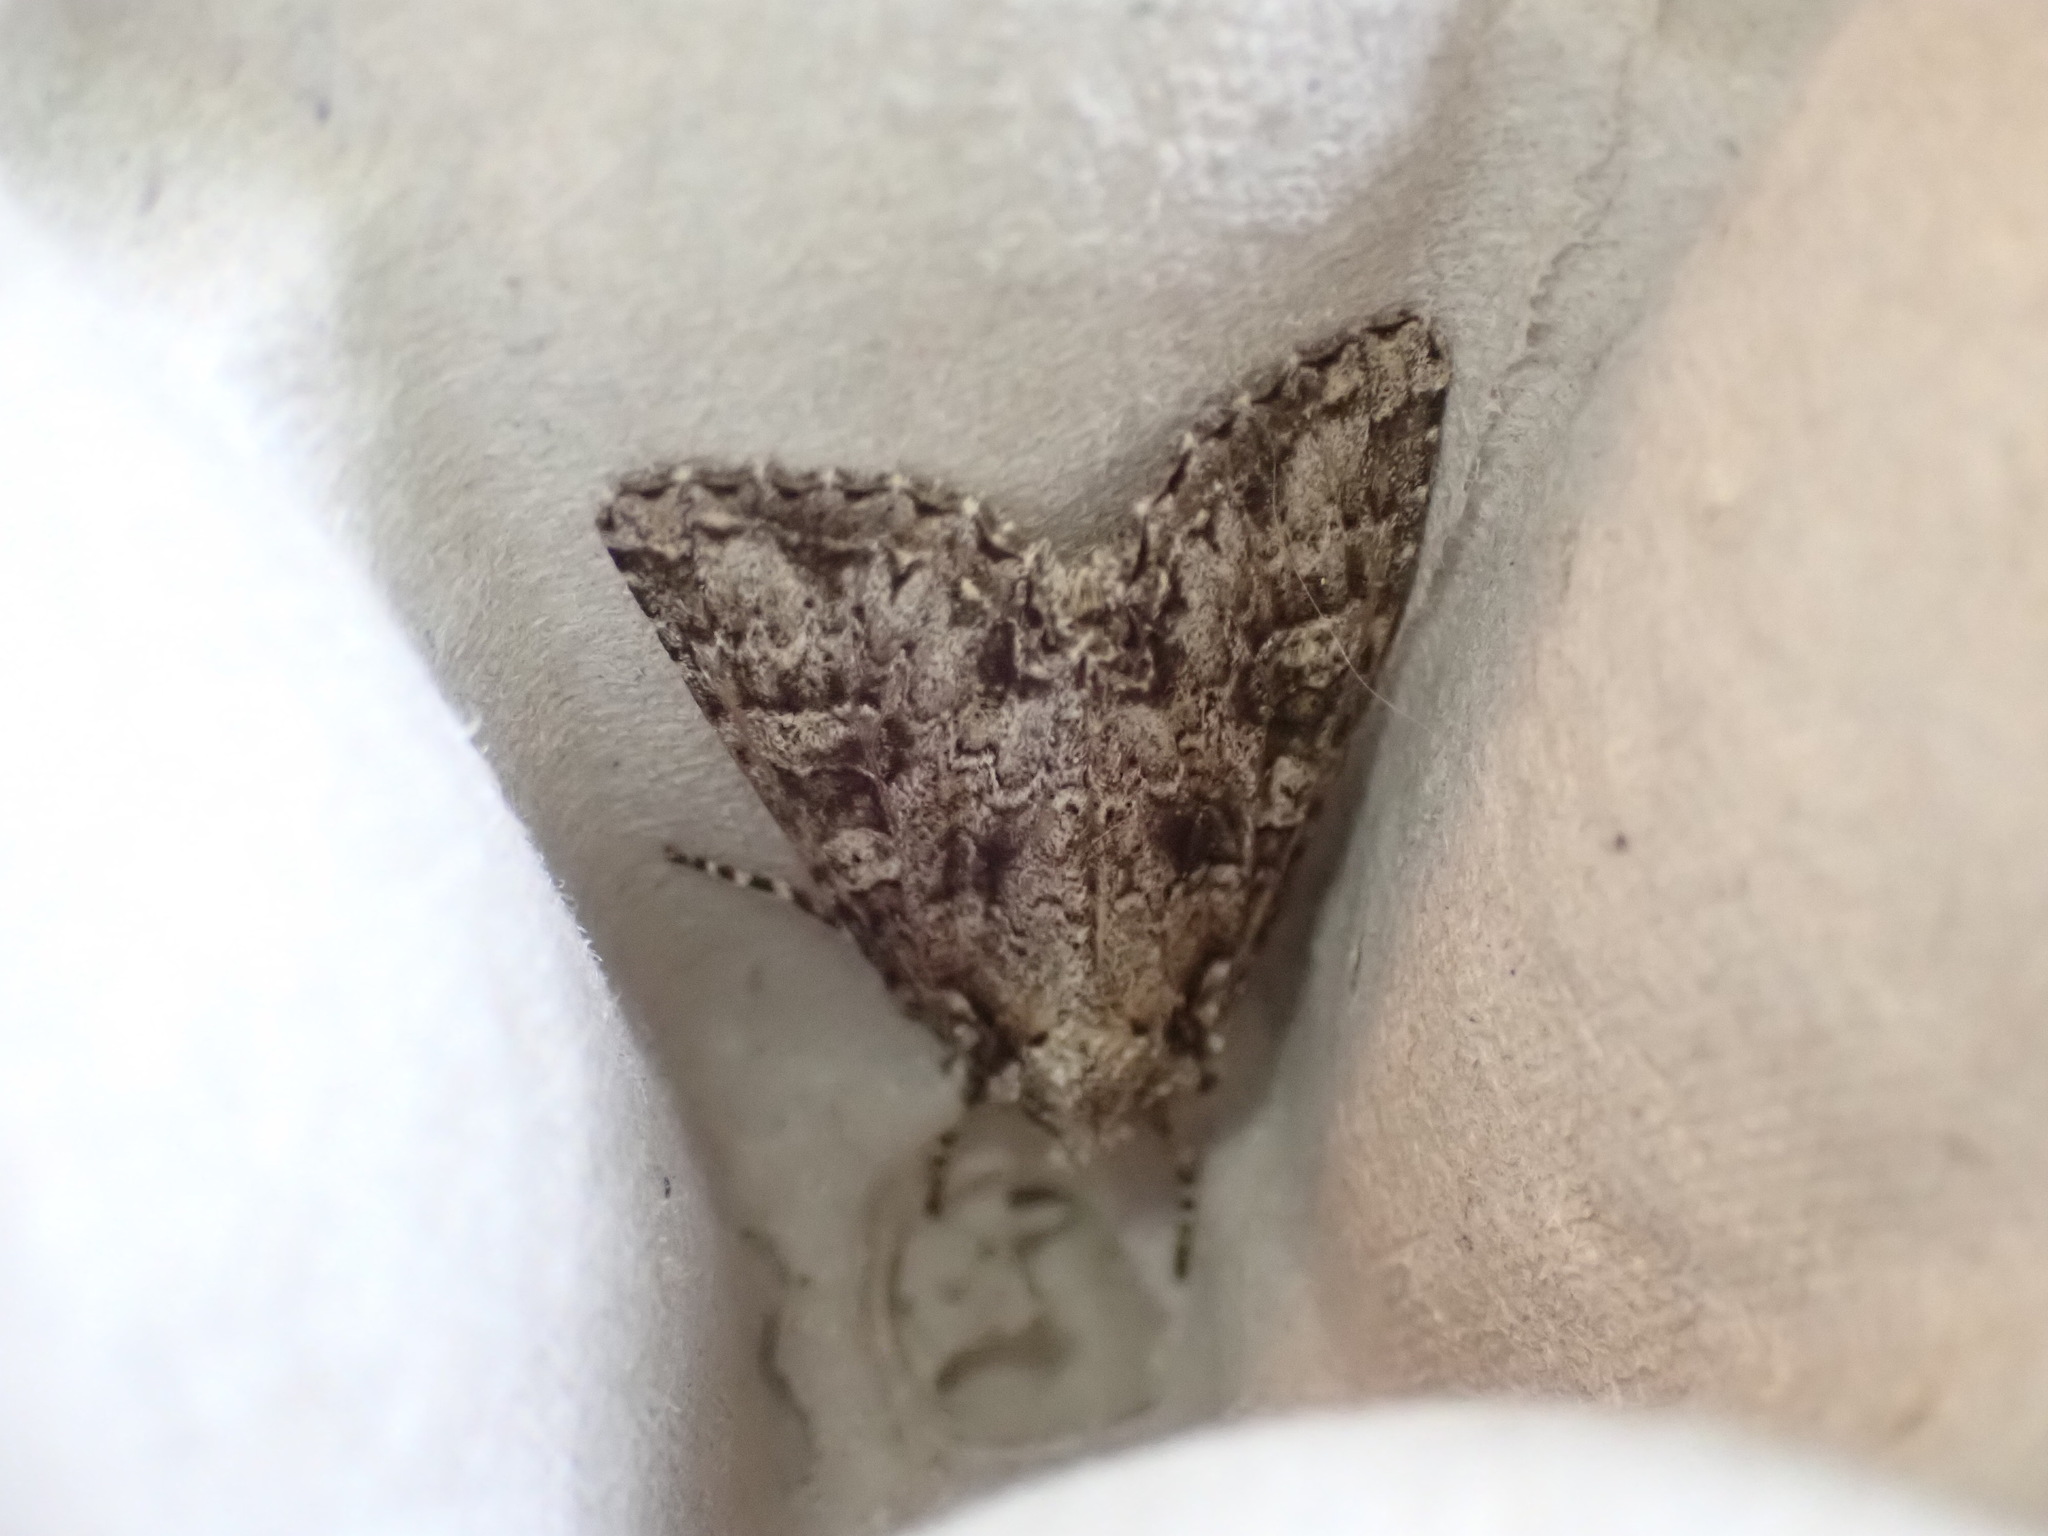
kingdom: Animalia
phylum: Arthropoda
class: Insecta
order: Lepidoptera
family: Noctuidae
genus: Polia
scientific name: Polia imbrifera
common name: Cloudy arches moth
